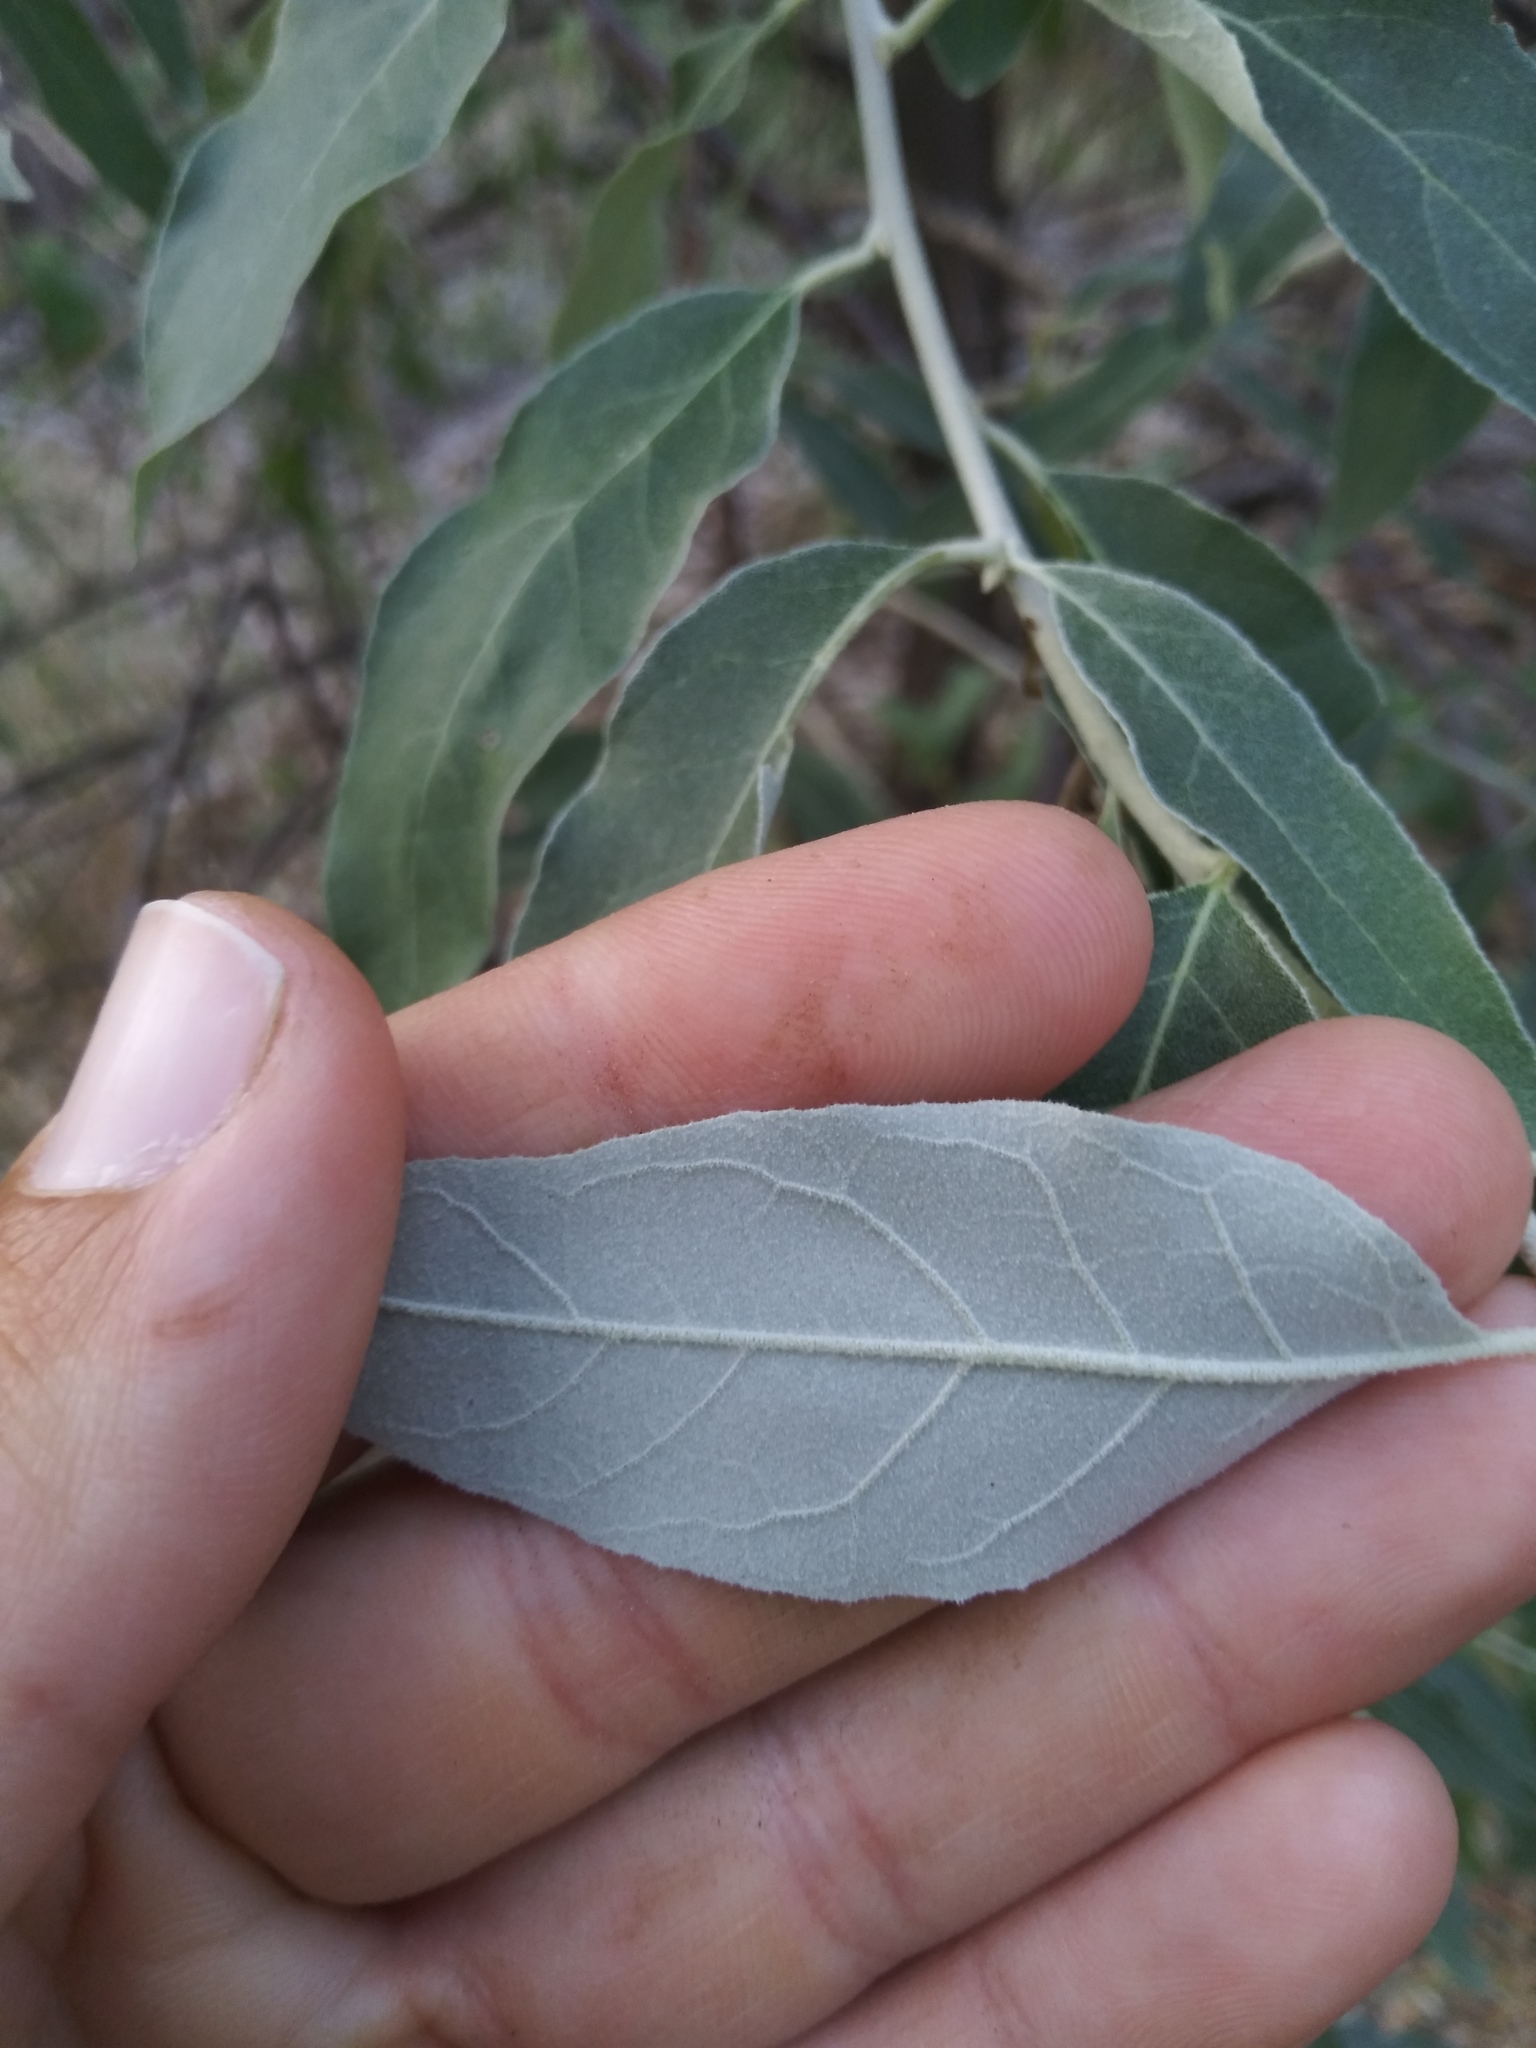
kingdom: Plantae
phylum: Tracheophyta
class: Magnoliopsida
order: Rosales
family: Elaeagnaceae
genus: Elaeagnus
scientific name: Elaeagnus angustifolia
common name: Russian olive
